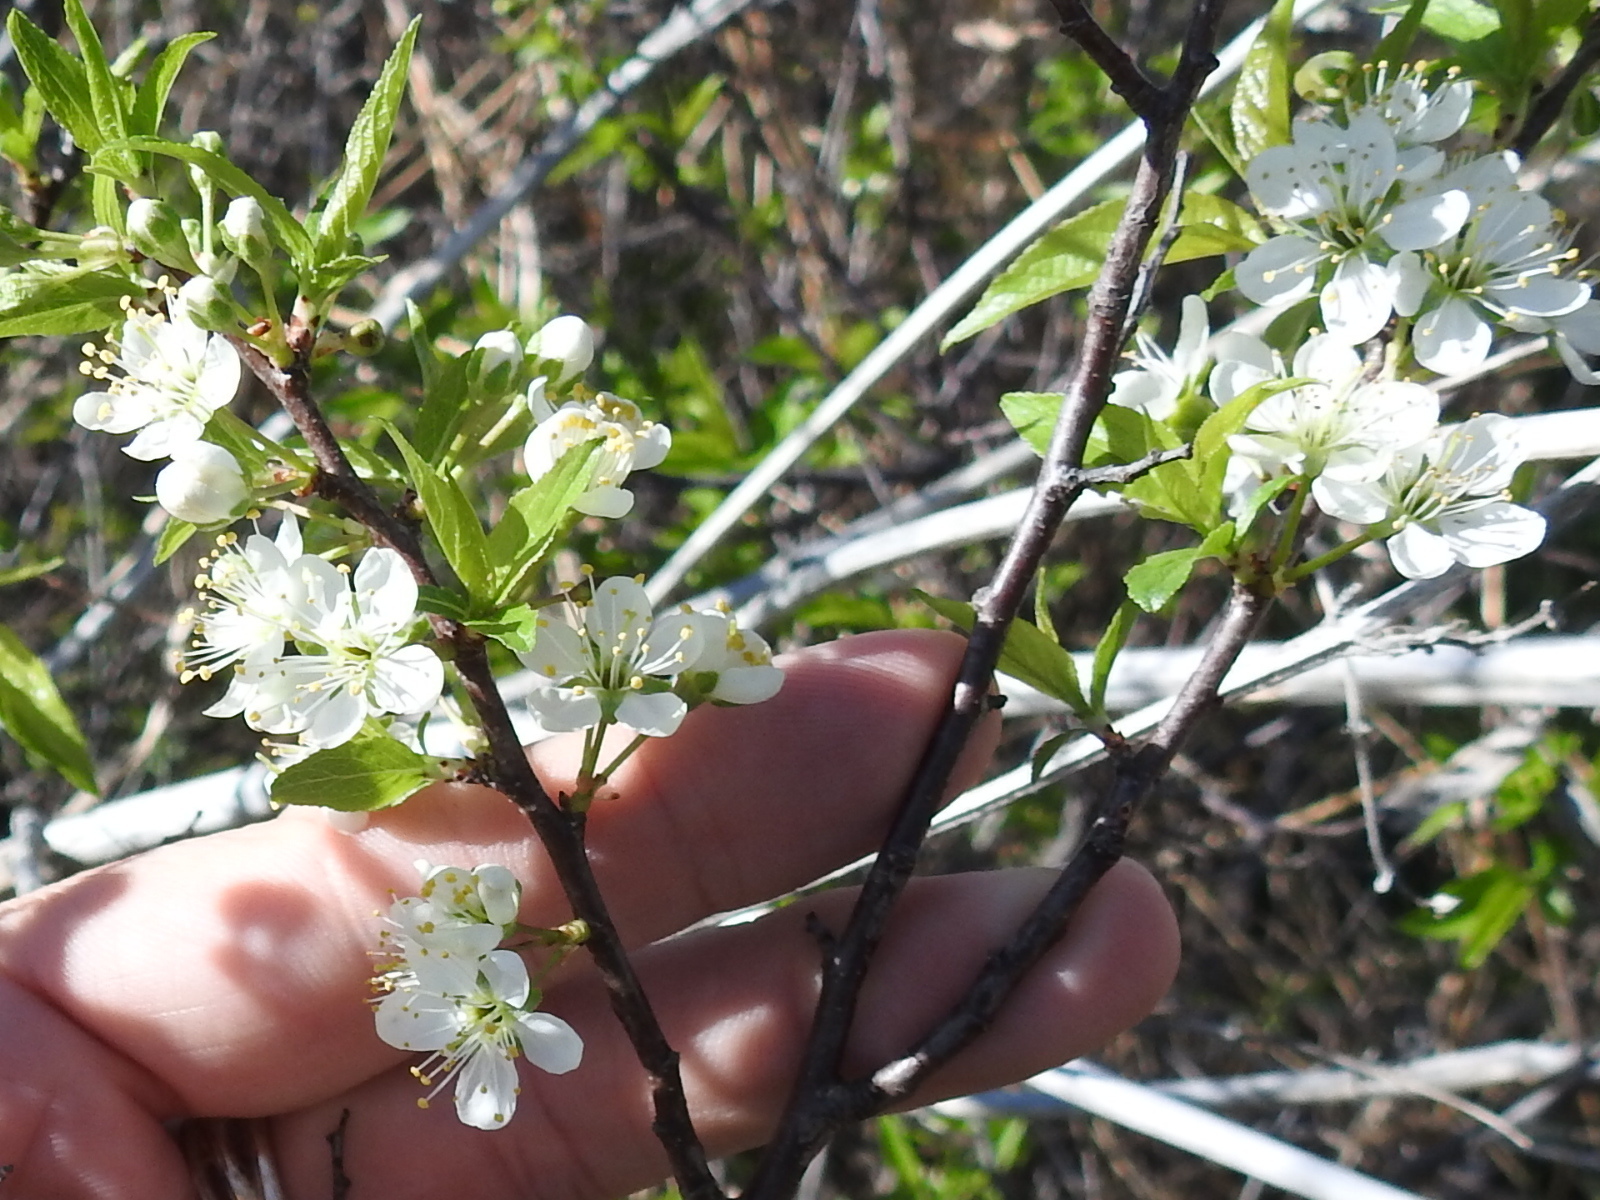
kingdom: Plantae
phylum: Tracheophyta
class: Magnoliopsida
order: Rosales
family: Rosaceae
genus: Prunus
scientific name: Prunus rivularis
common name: Creek plum
